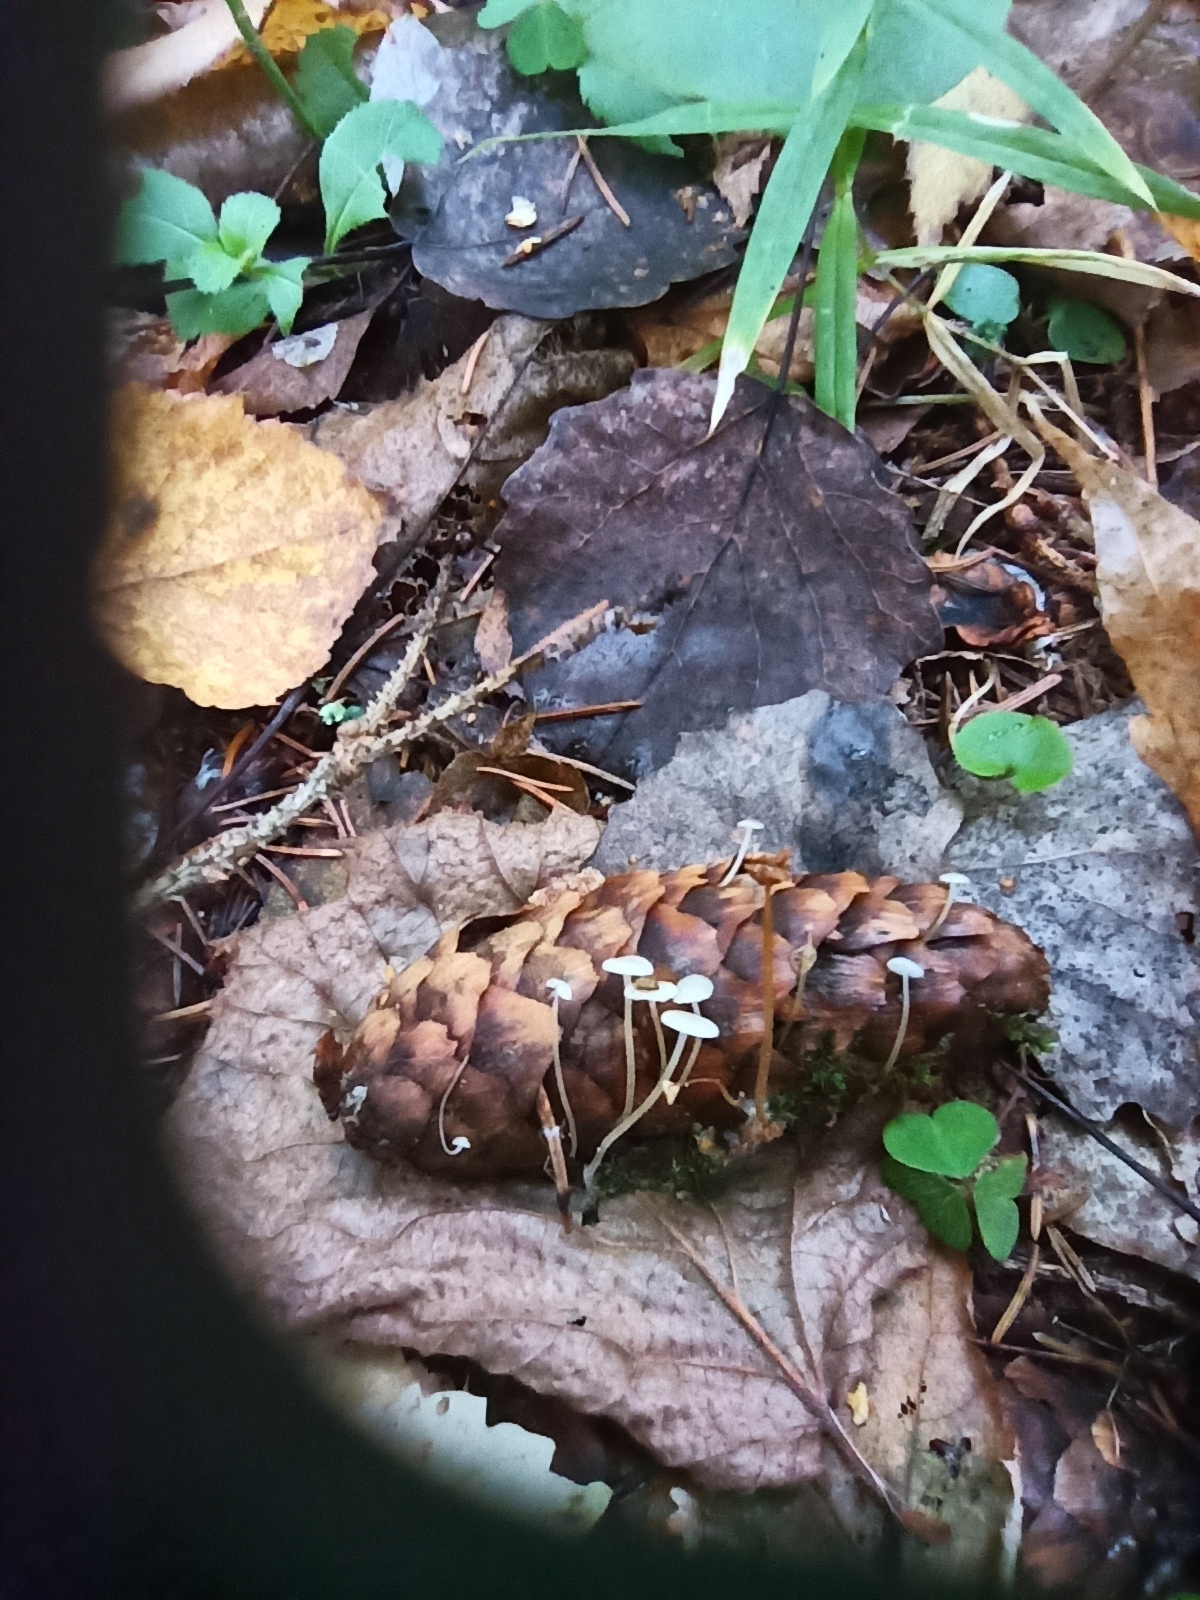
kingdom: Fungi
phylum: Basidiomycota
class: Agaricomycetes
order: Agaricales
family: Physalacriaceae
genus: Strobilurus
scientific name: Strobilurus conigenus
